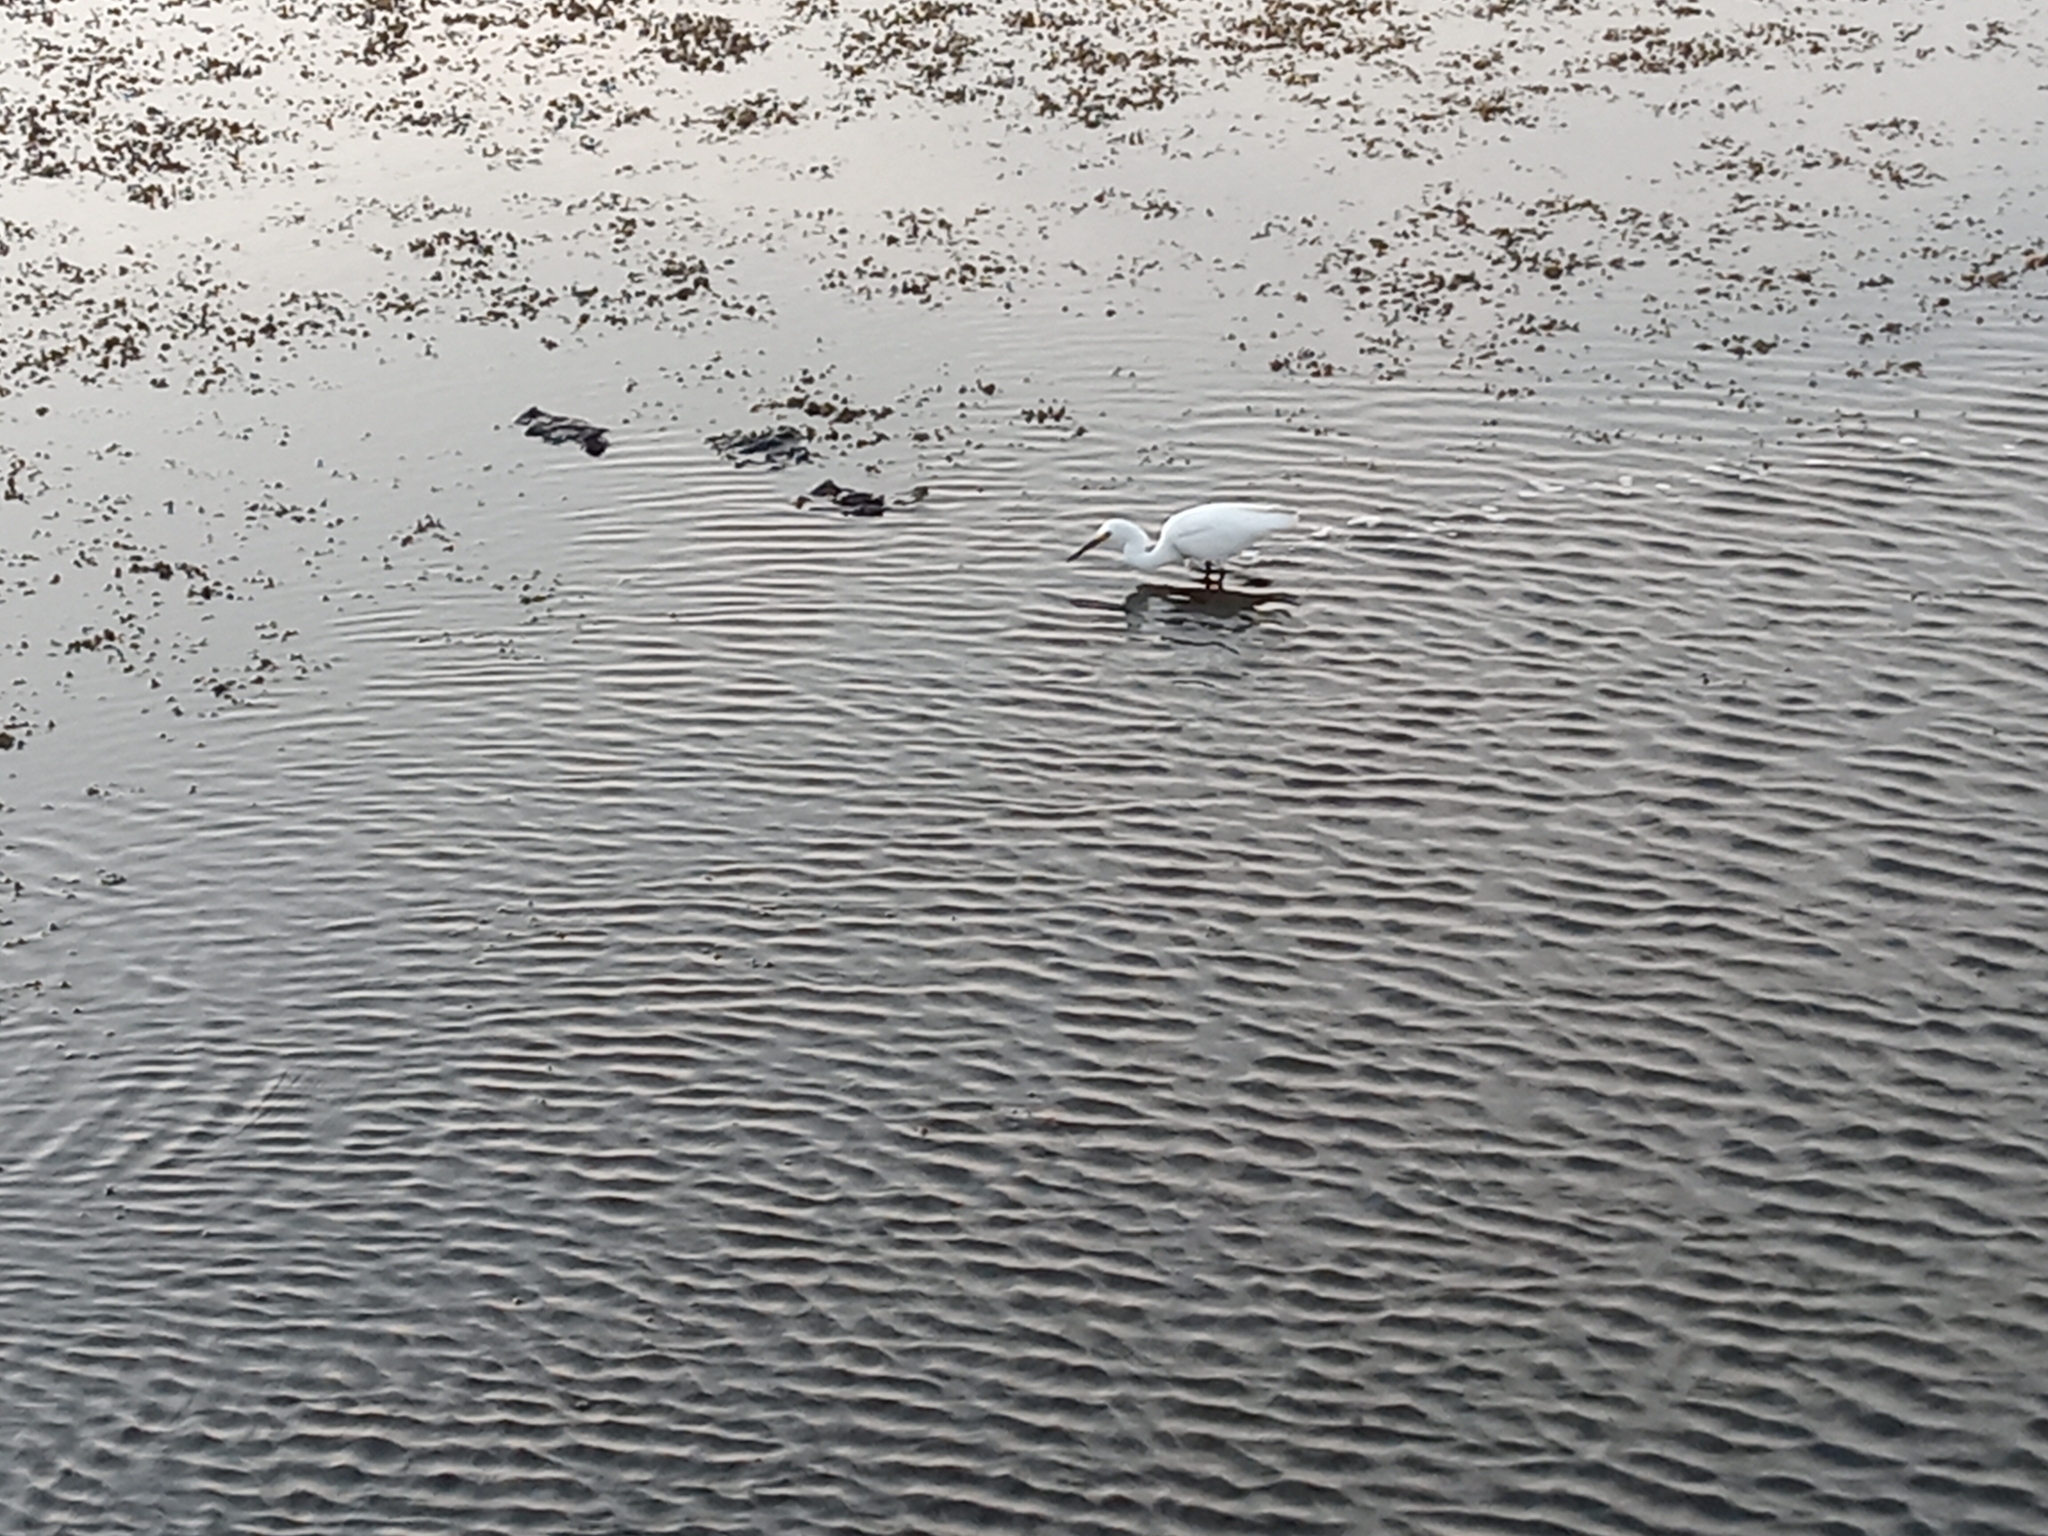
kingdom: Animalia
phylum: Chordata
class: Aves
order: Pelecaniformes
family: Ardeidae
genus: Egretta
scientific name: Egretta thula
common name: Snowy egret
